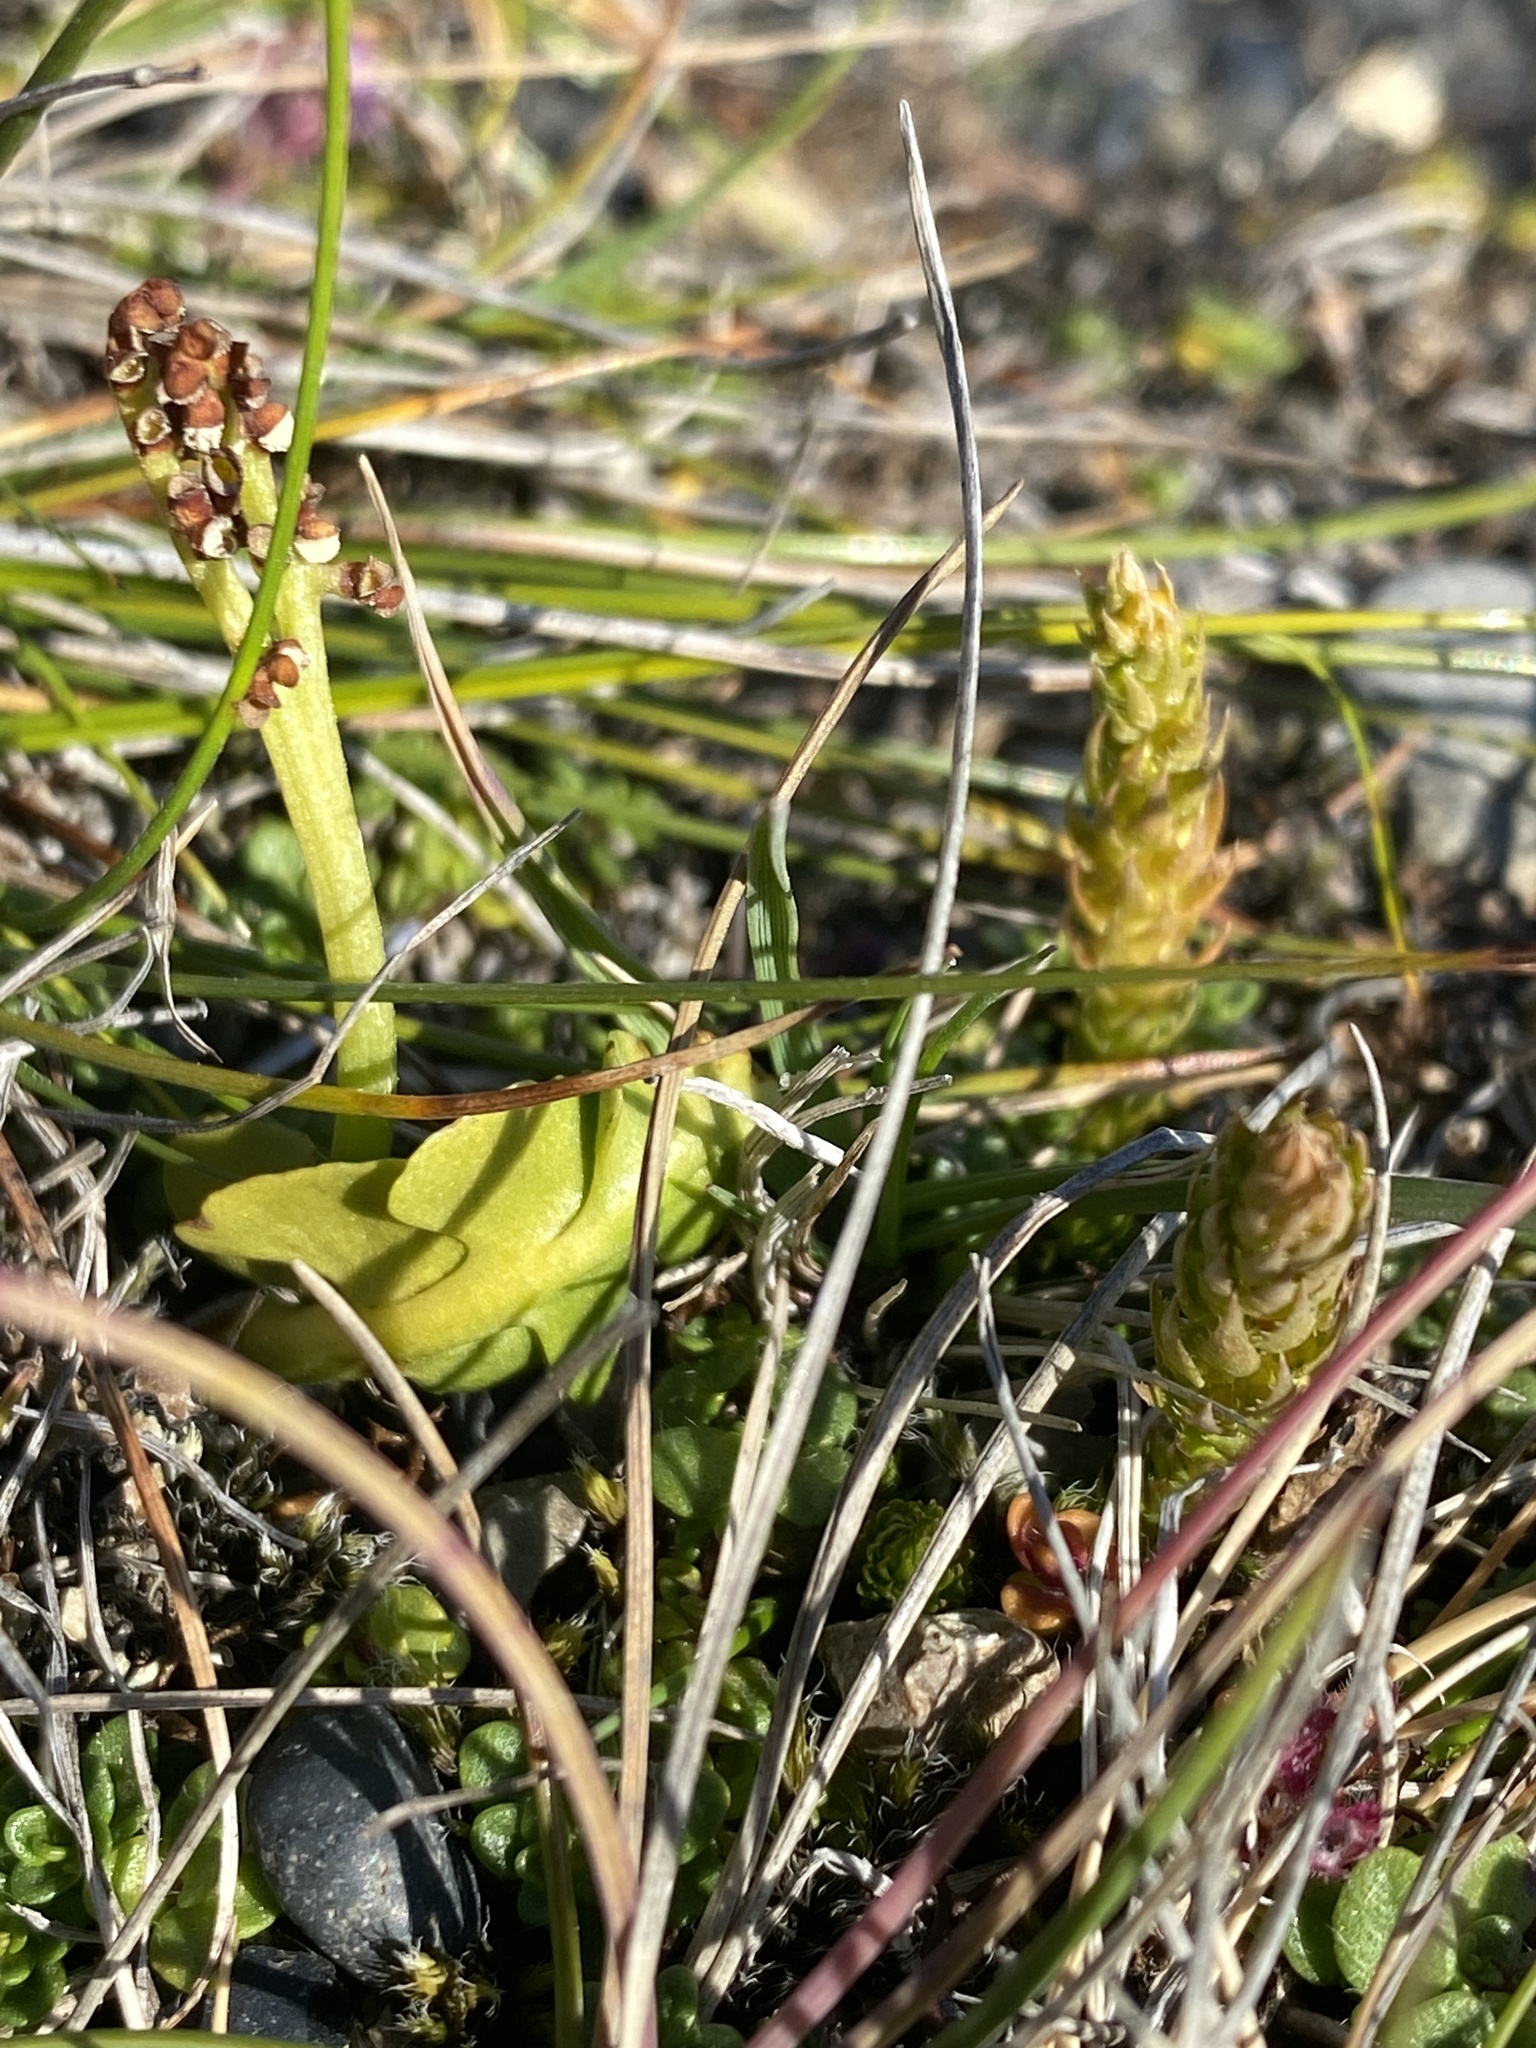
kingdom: Plantae
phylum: Tracheophyta
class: Polypodiopsida
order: Ophioglossales
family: Ophioglossaceae
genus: Botrychium
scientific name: Botrychium lunaria
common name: Moonwort
